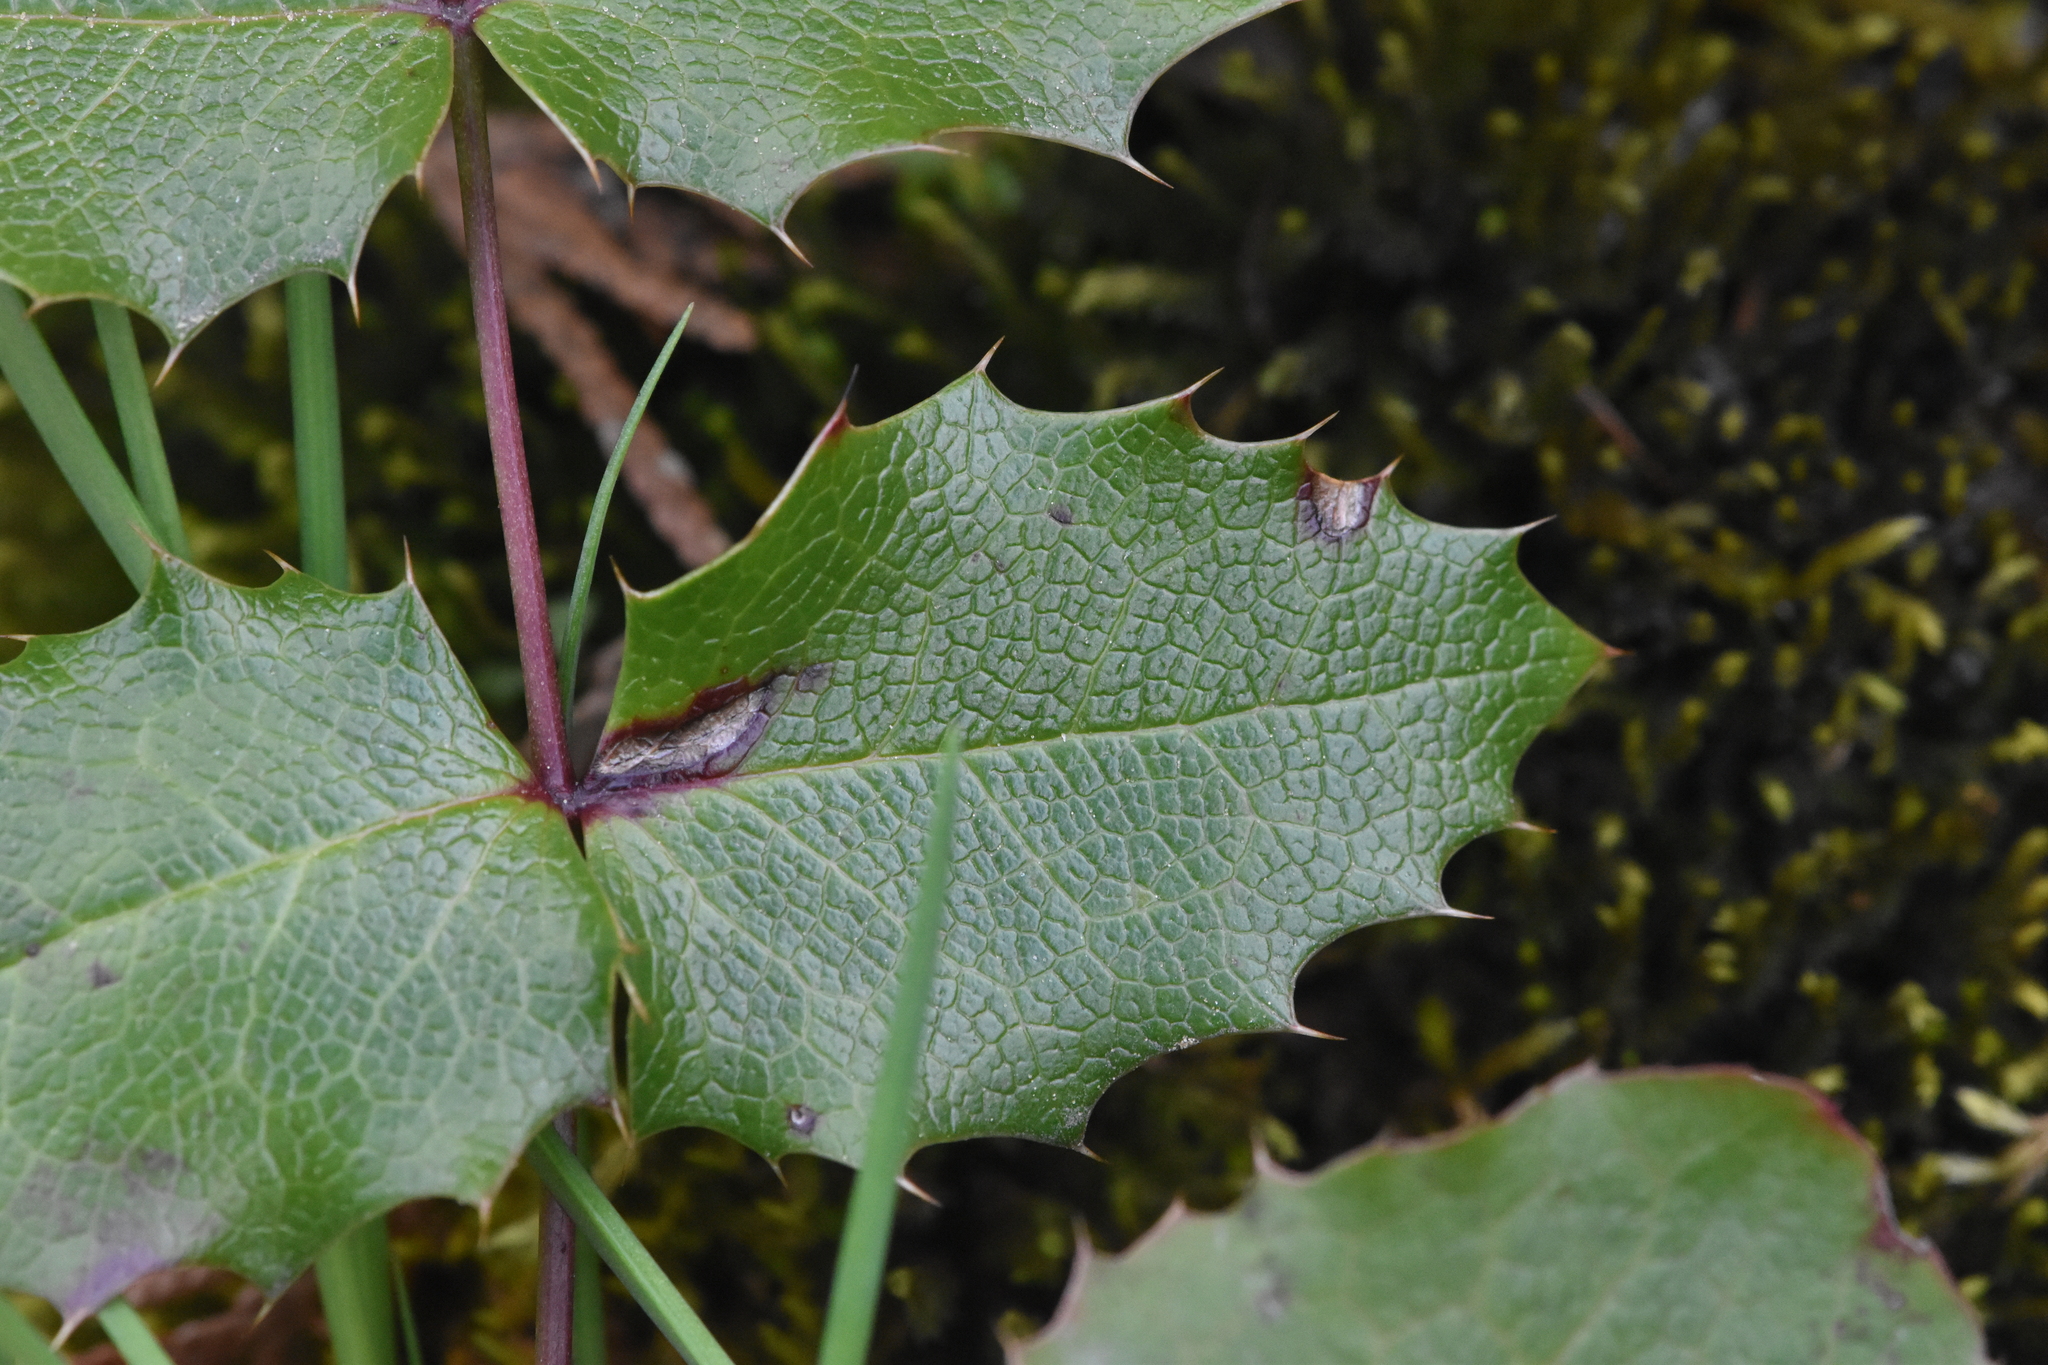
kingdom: Plantae
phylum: Tracheophyta
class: Magnoliopsida
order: Ranunculales
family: Berberidaceae
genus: Mahonia
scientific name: Mahonia aquifolium
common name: Oregon-grape
